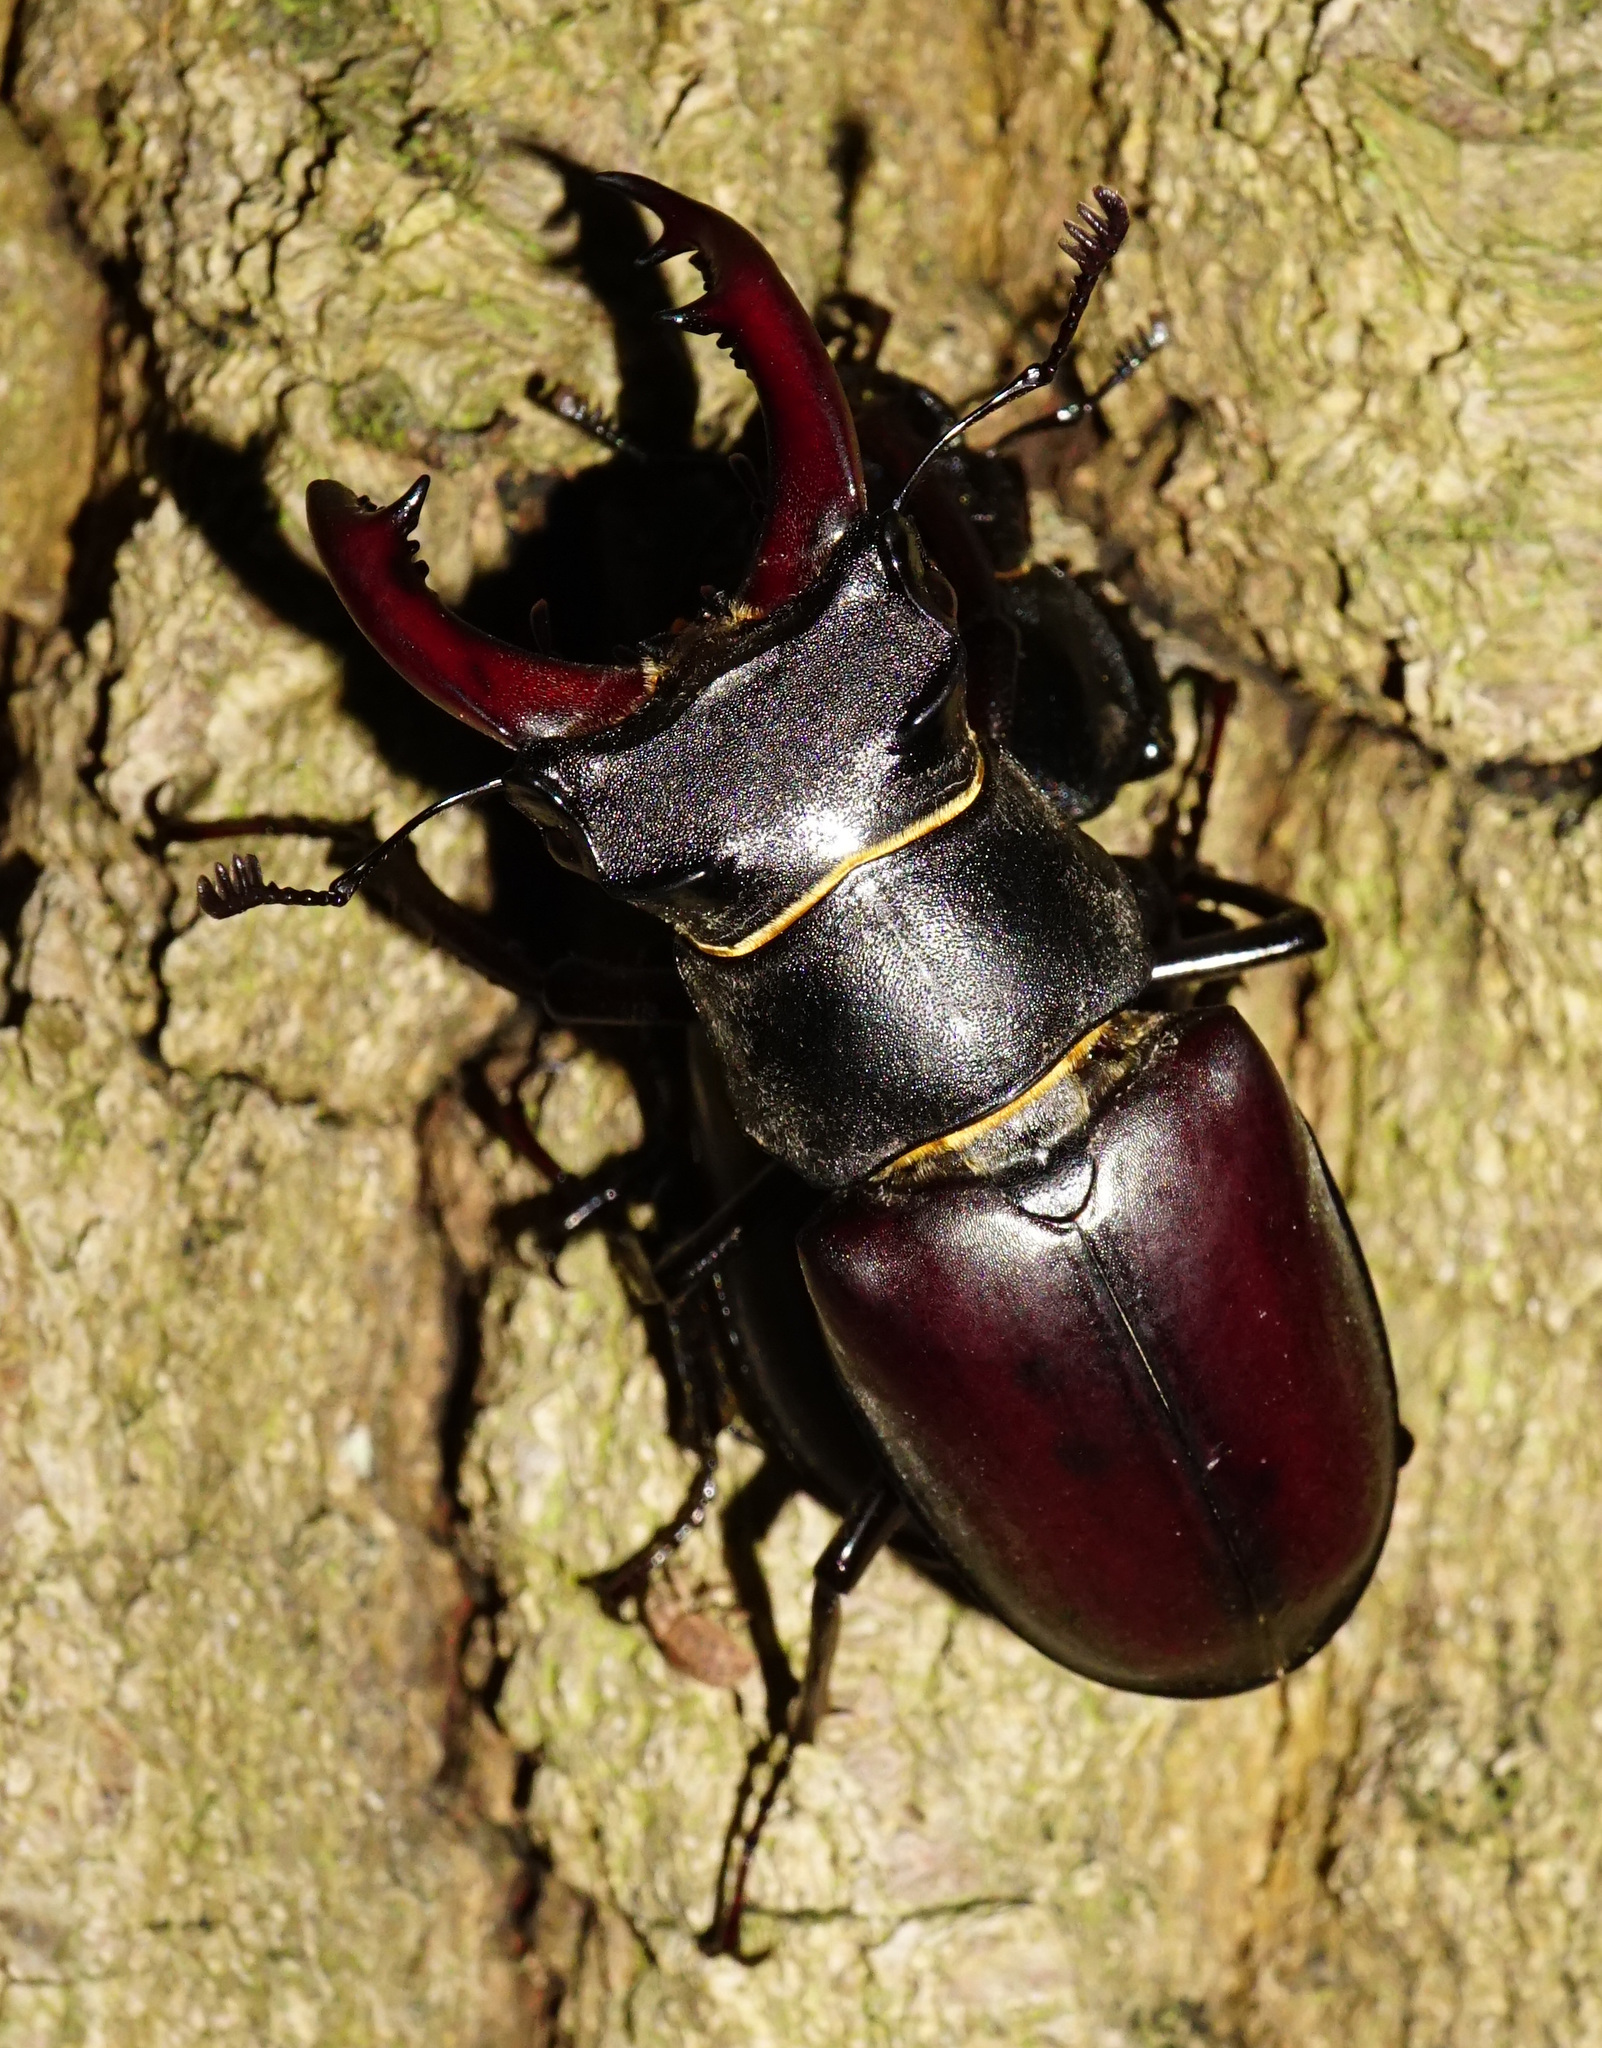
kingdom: Animalia
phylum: Arthropoda
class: Insecta
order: Coleoptera
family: Lucanidae
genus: Lucanus
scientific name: Lucanus cervus
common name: Stag beetle
